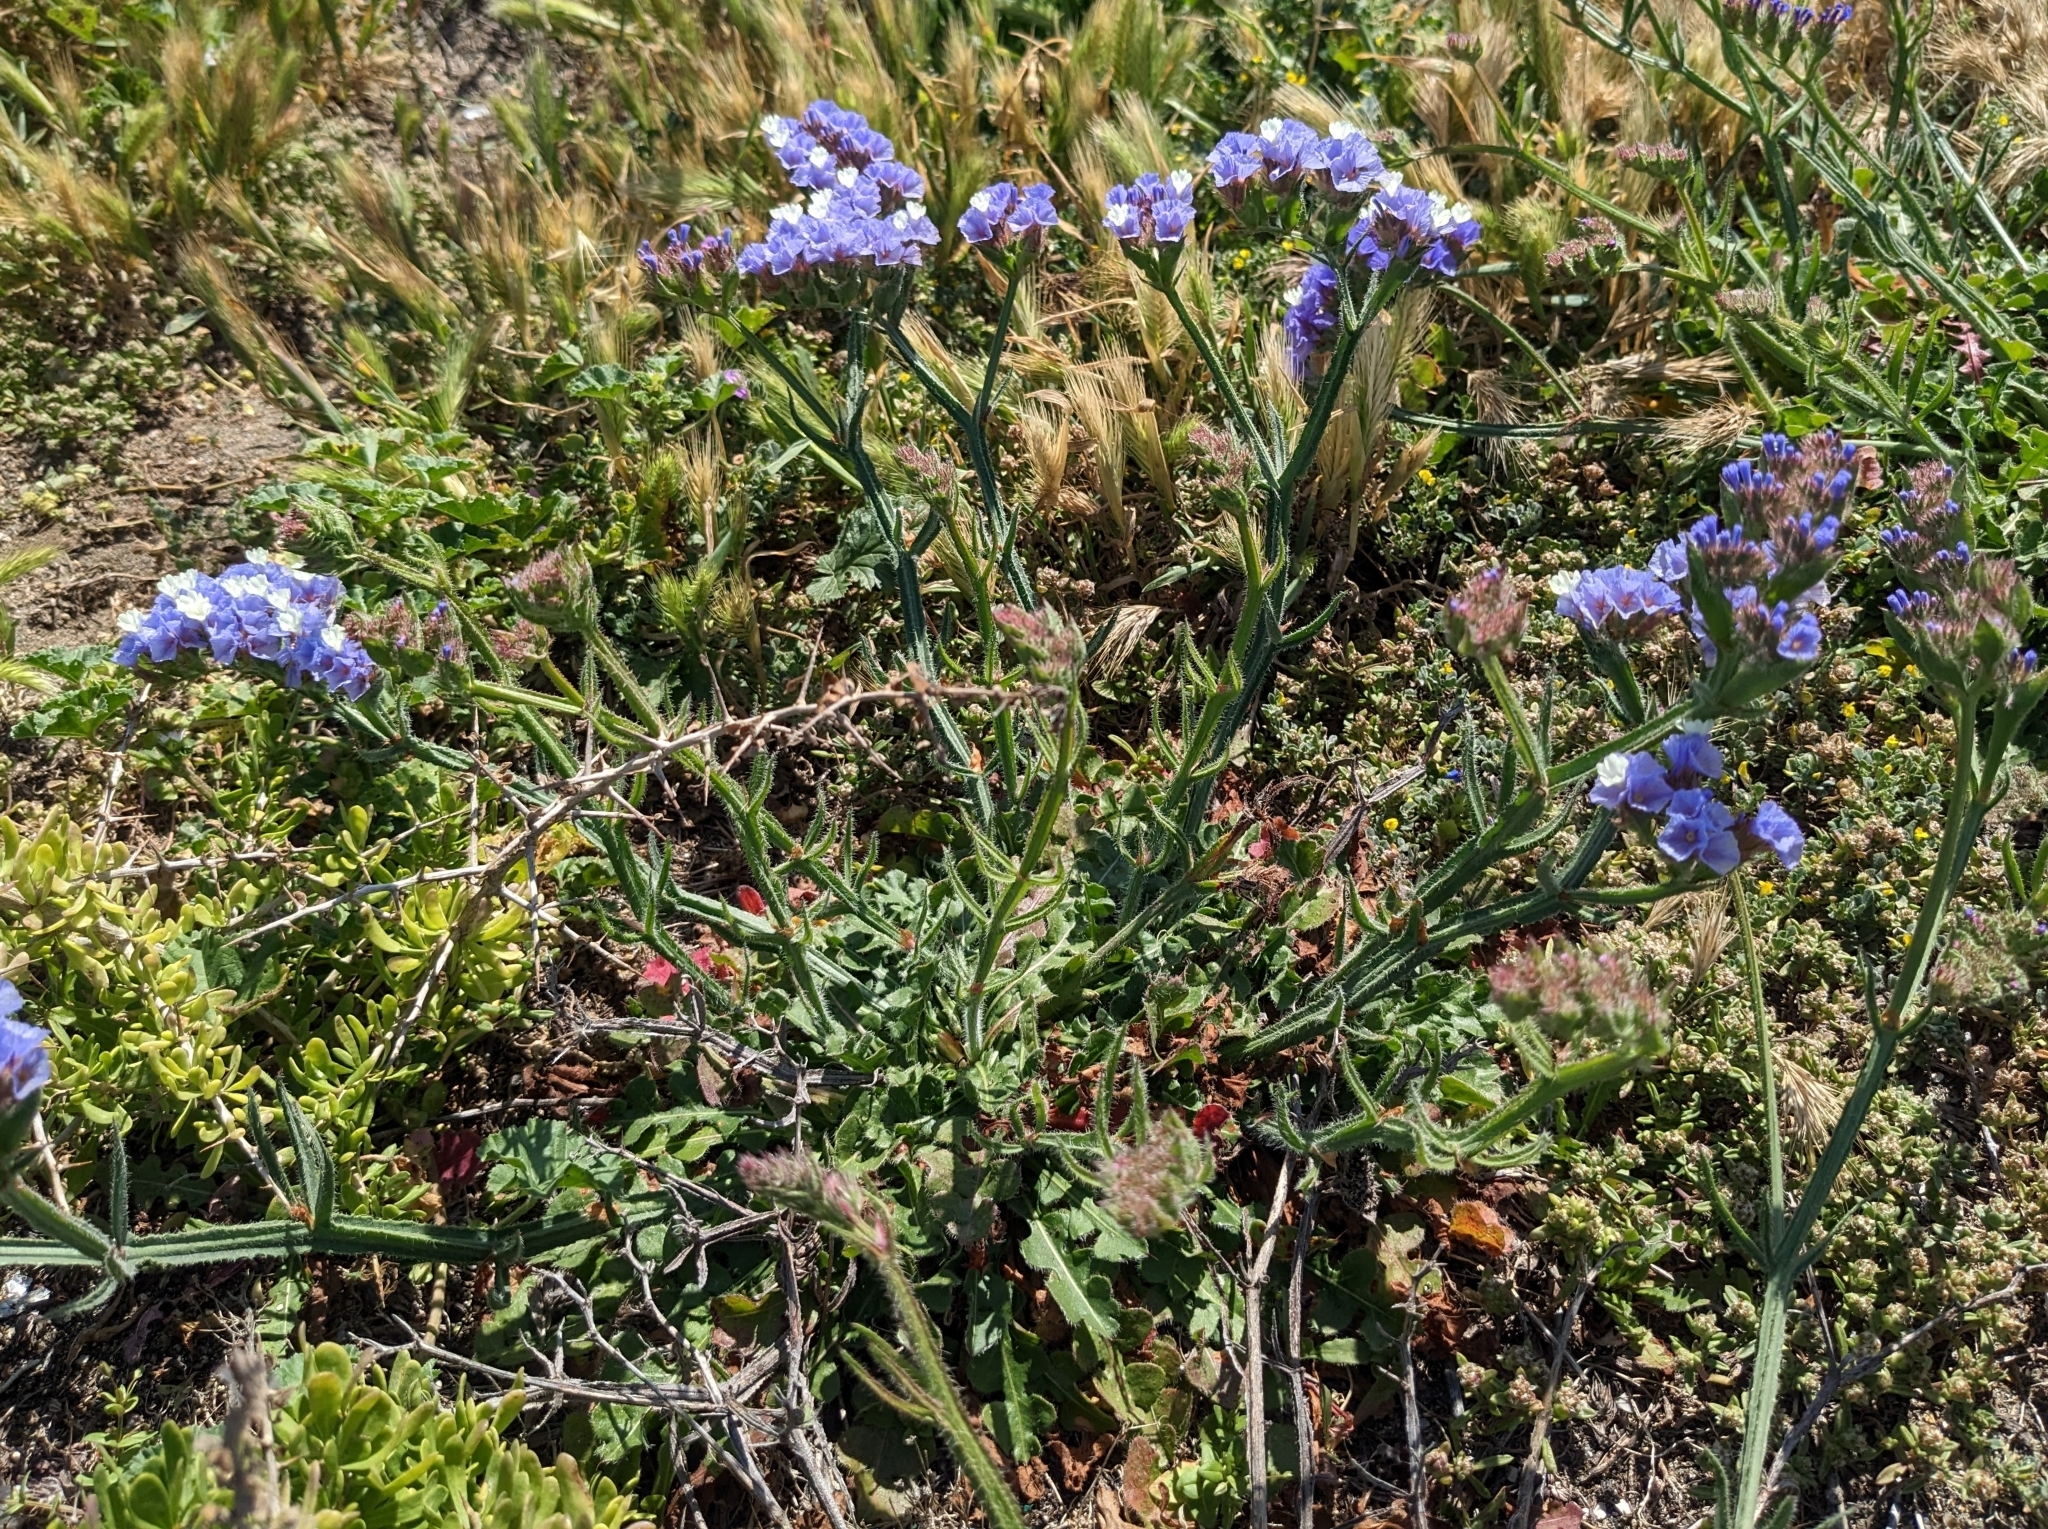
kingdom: Plantae
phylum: Tracheophyta
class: Magnoliopsida
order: Caryophyllales
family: Plumbaginaceae
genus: Limonium
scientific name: Limonium sinuatum
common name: Statice
